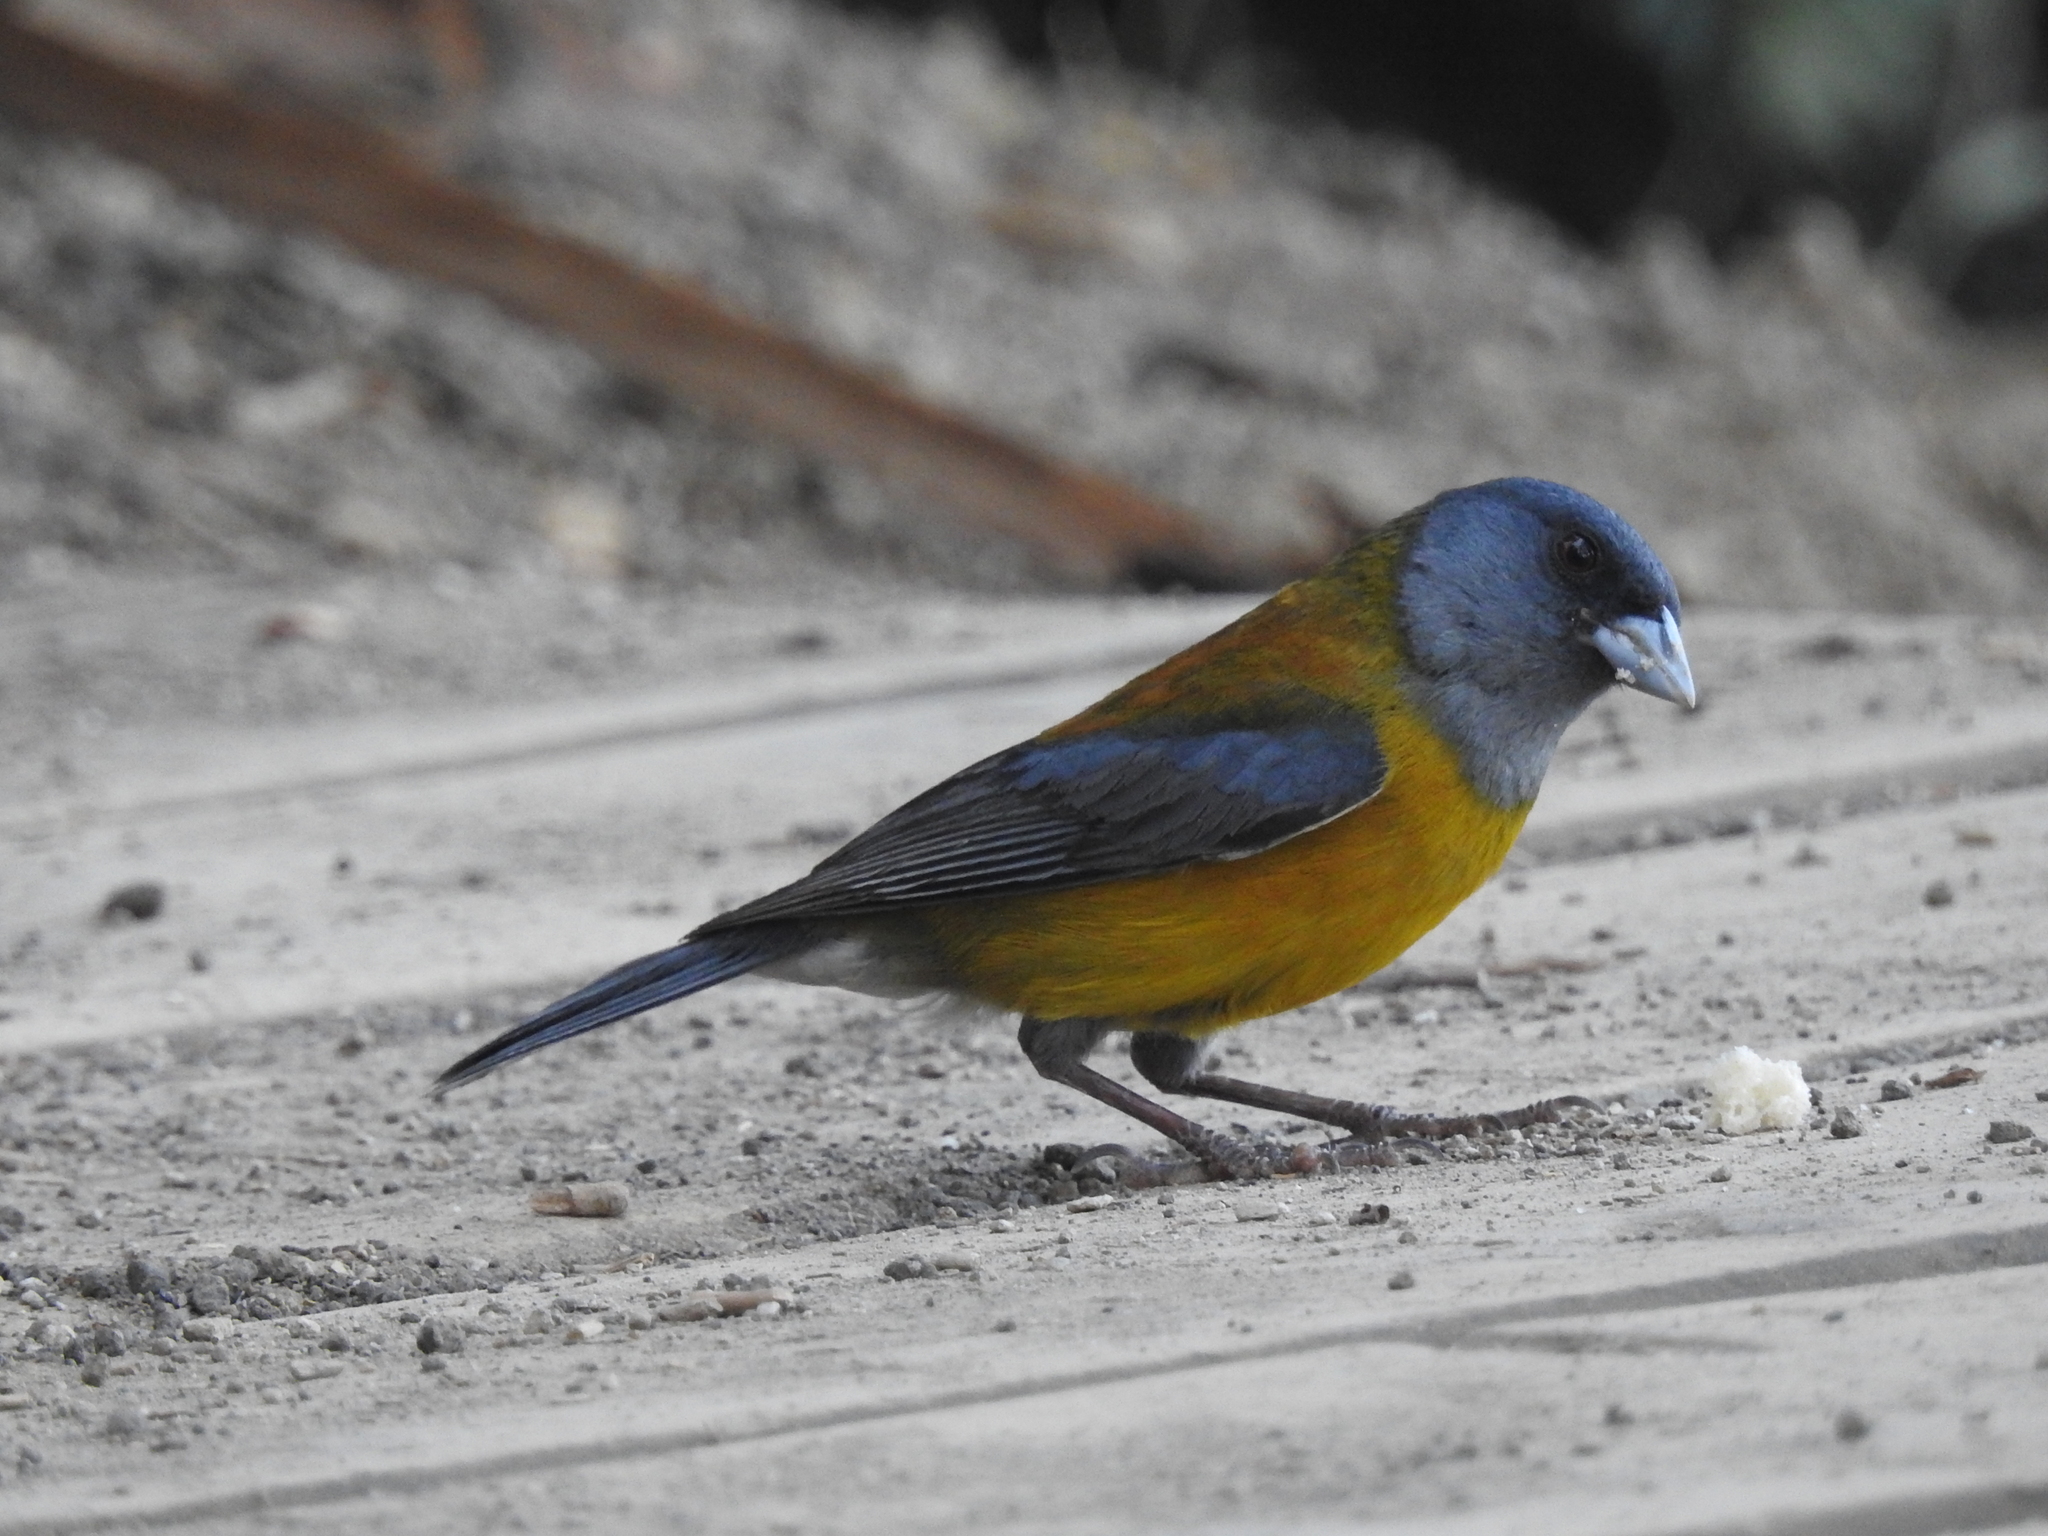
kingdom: Animalia
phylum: Chordata
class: Aves
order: Passeriformes
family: Thraupidae
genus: Phrygilus
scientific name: Phrygilus patagonicus
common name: Patagonian sierra finch
